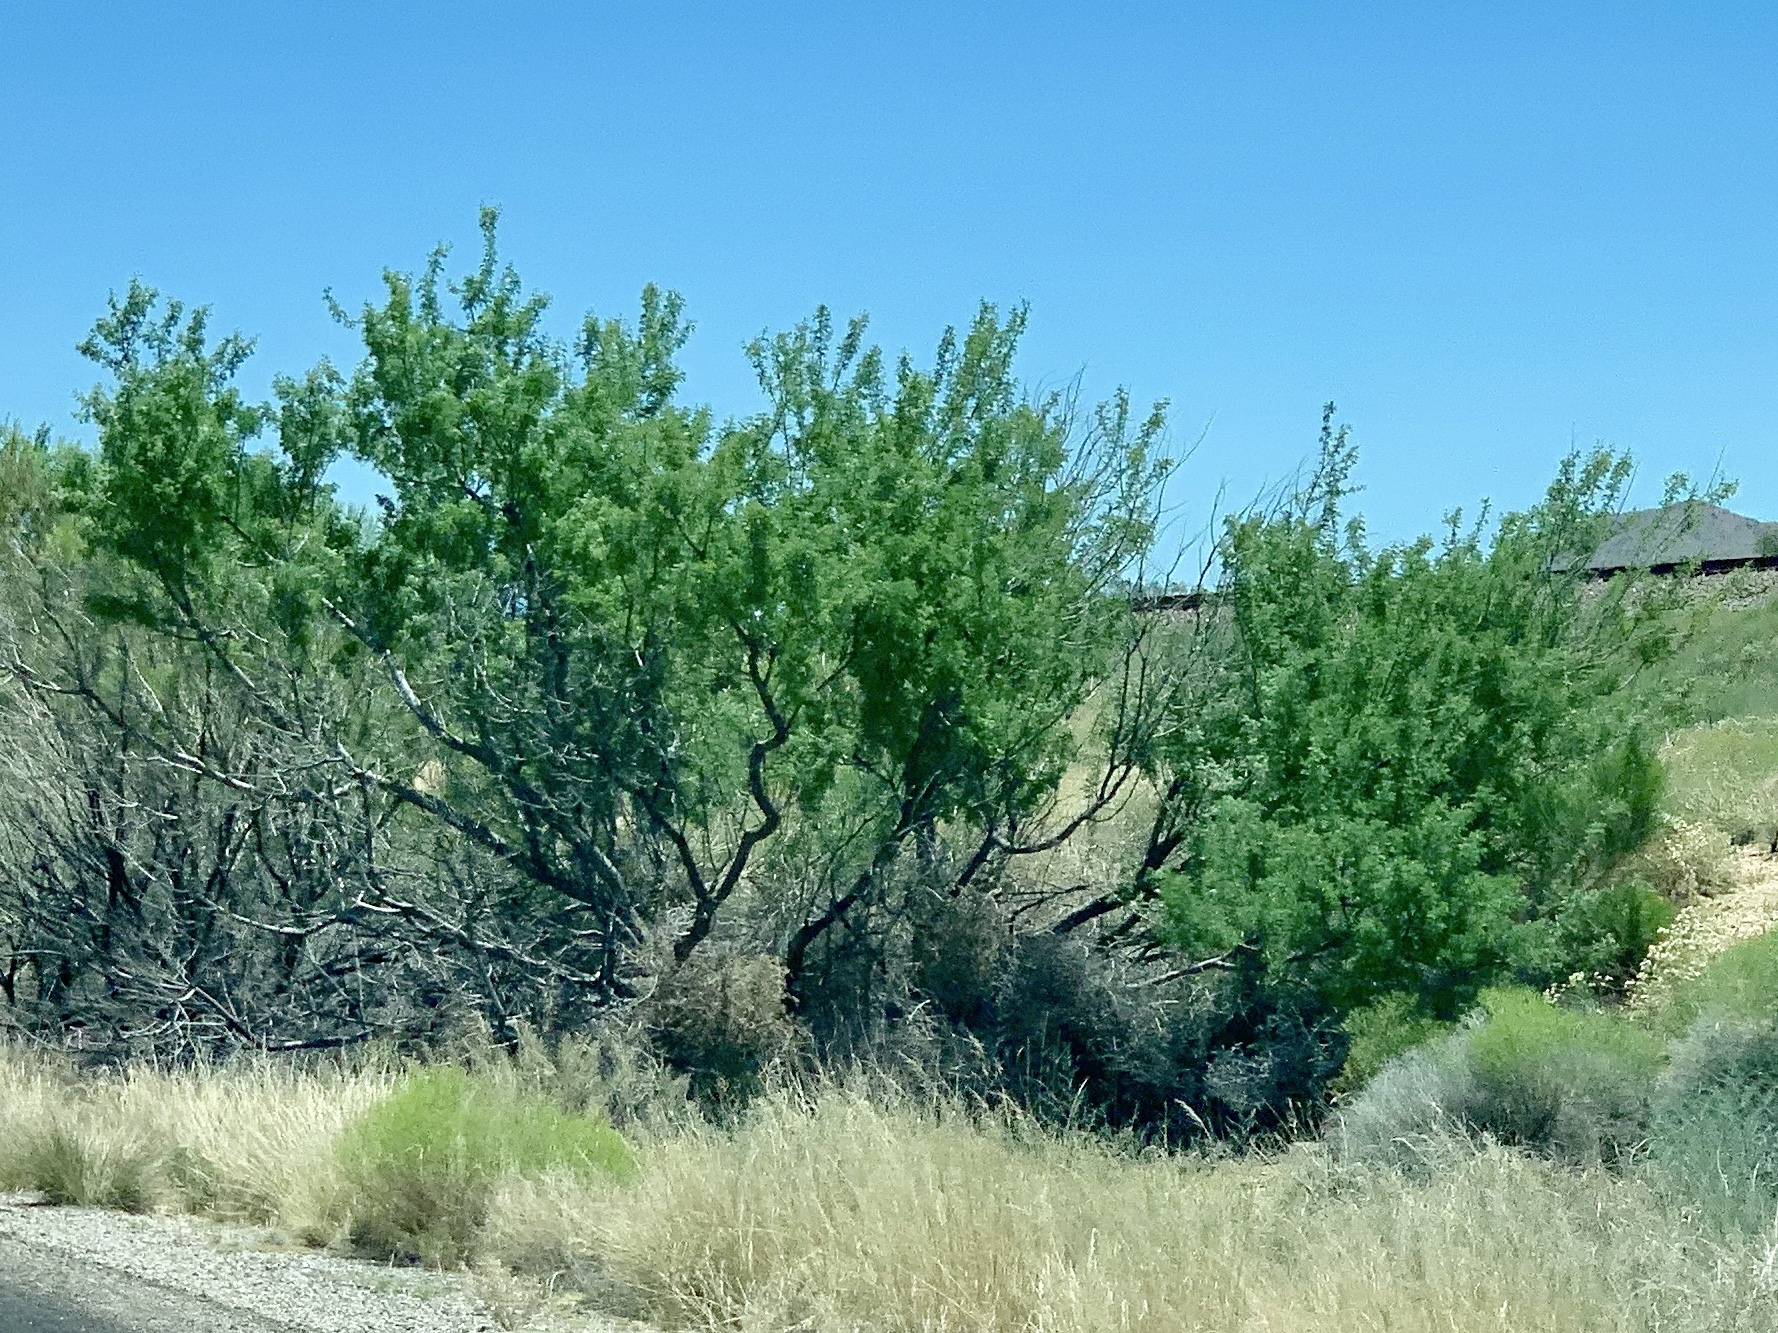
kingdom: Plantae
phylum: Tracheophyta
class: Magnoliopsida
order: Fabales
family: Fabaceae
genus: Senegalia
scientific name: Senegalia greggii
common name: Texas-mimosa
